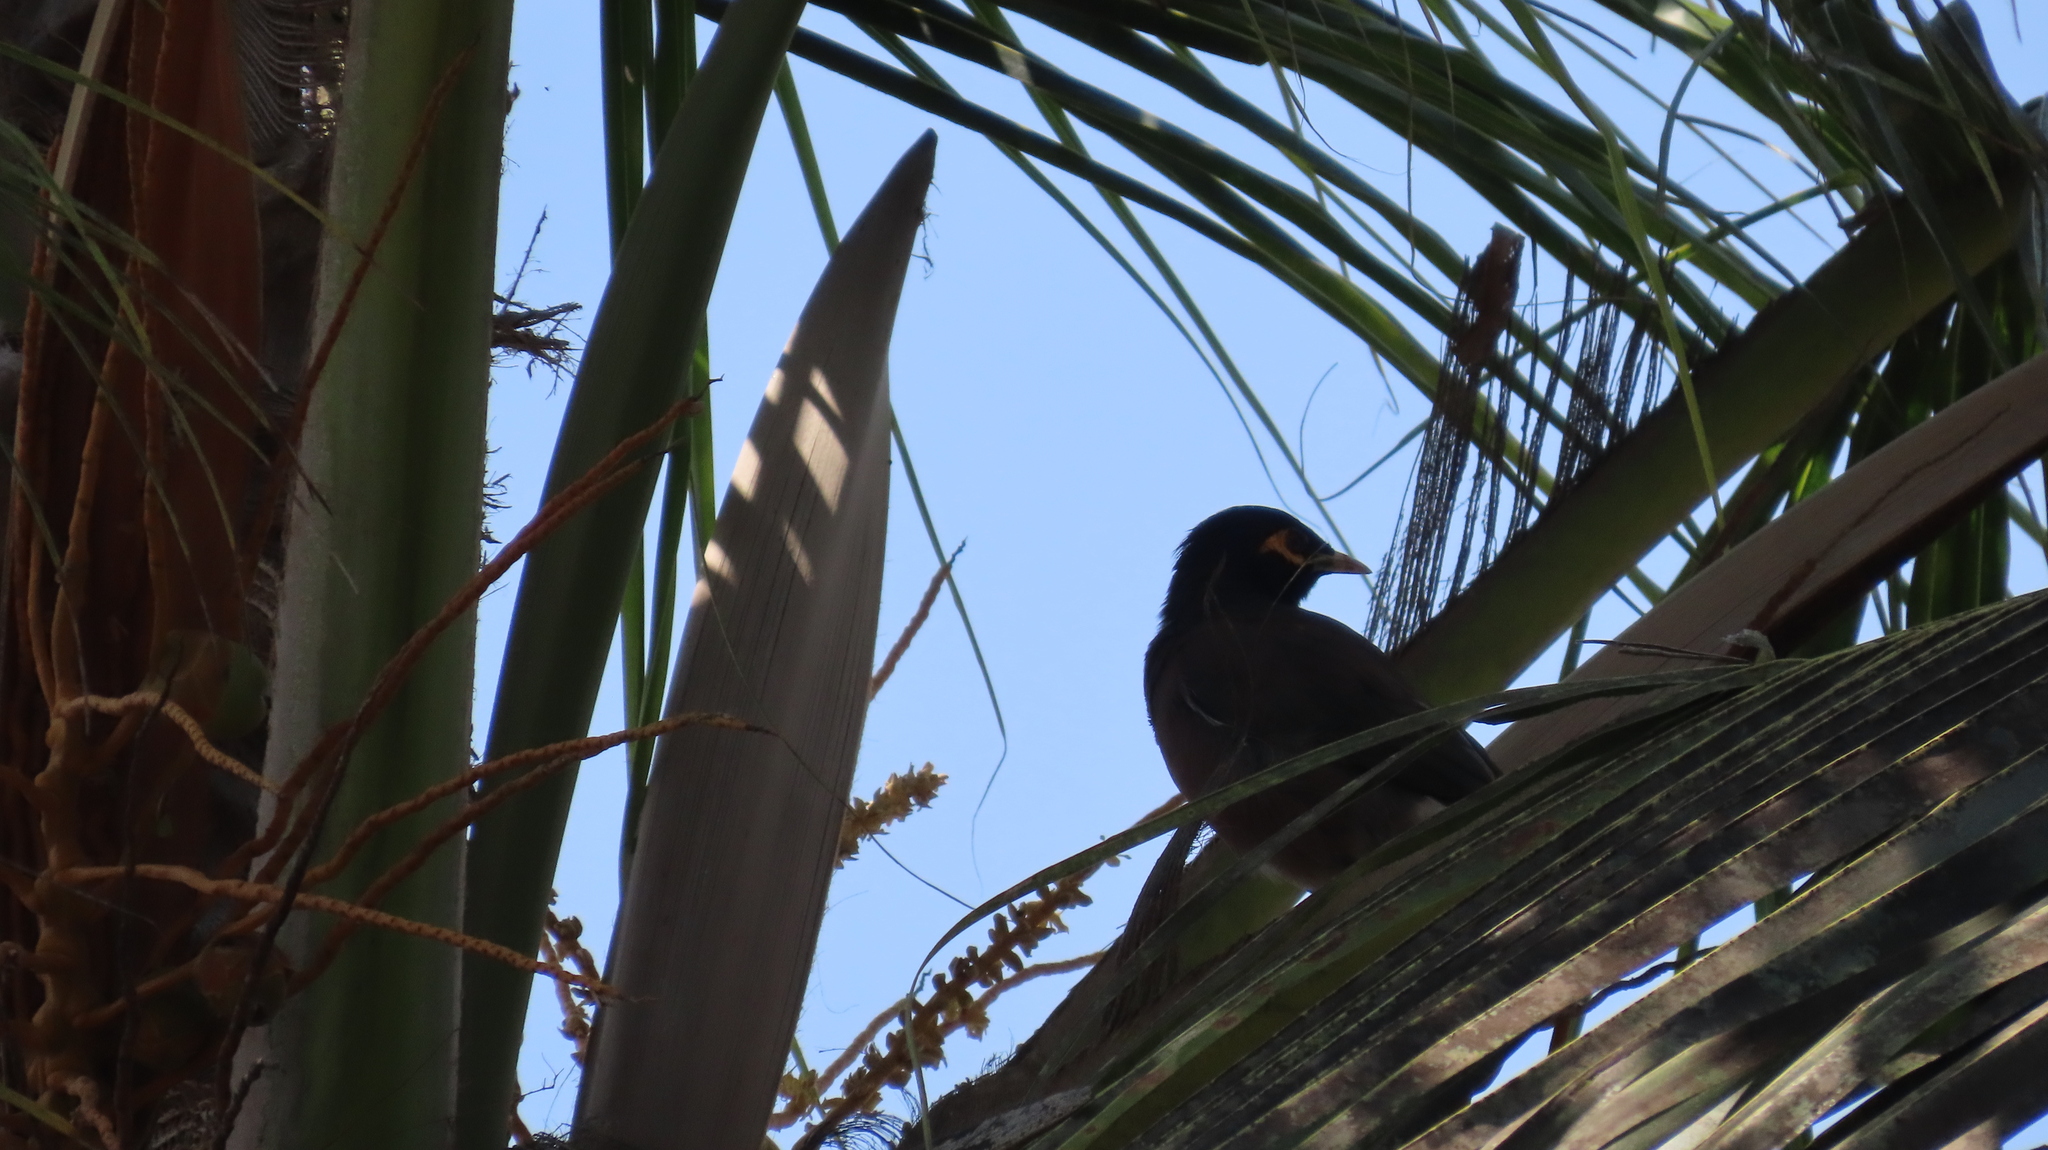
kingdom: Animalia
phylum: Chordata
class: Aves
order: Passeriformes
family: Sturnidae
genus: Acridotheres
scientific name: Acridotheres tristis
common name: Common myna
